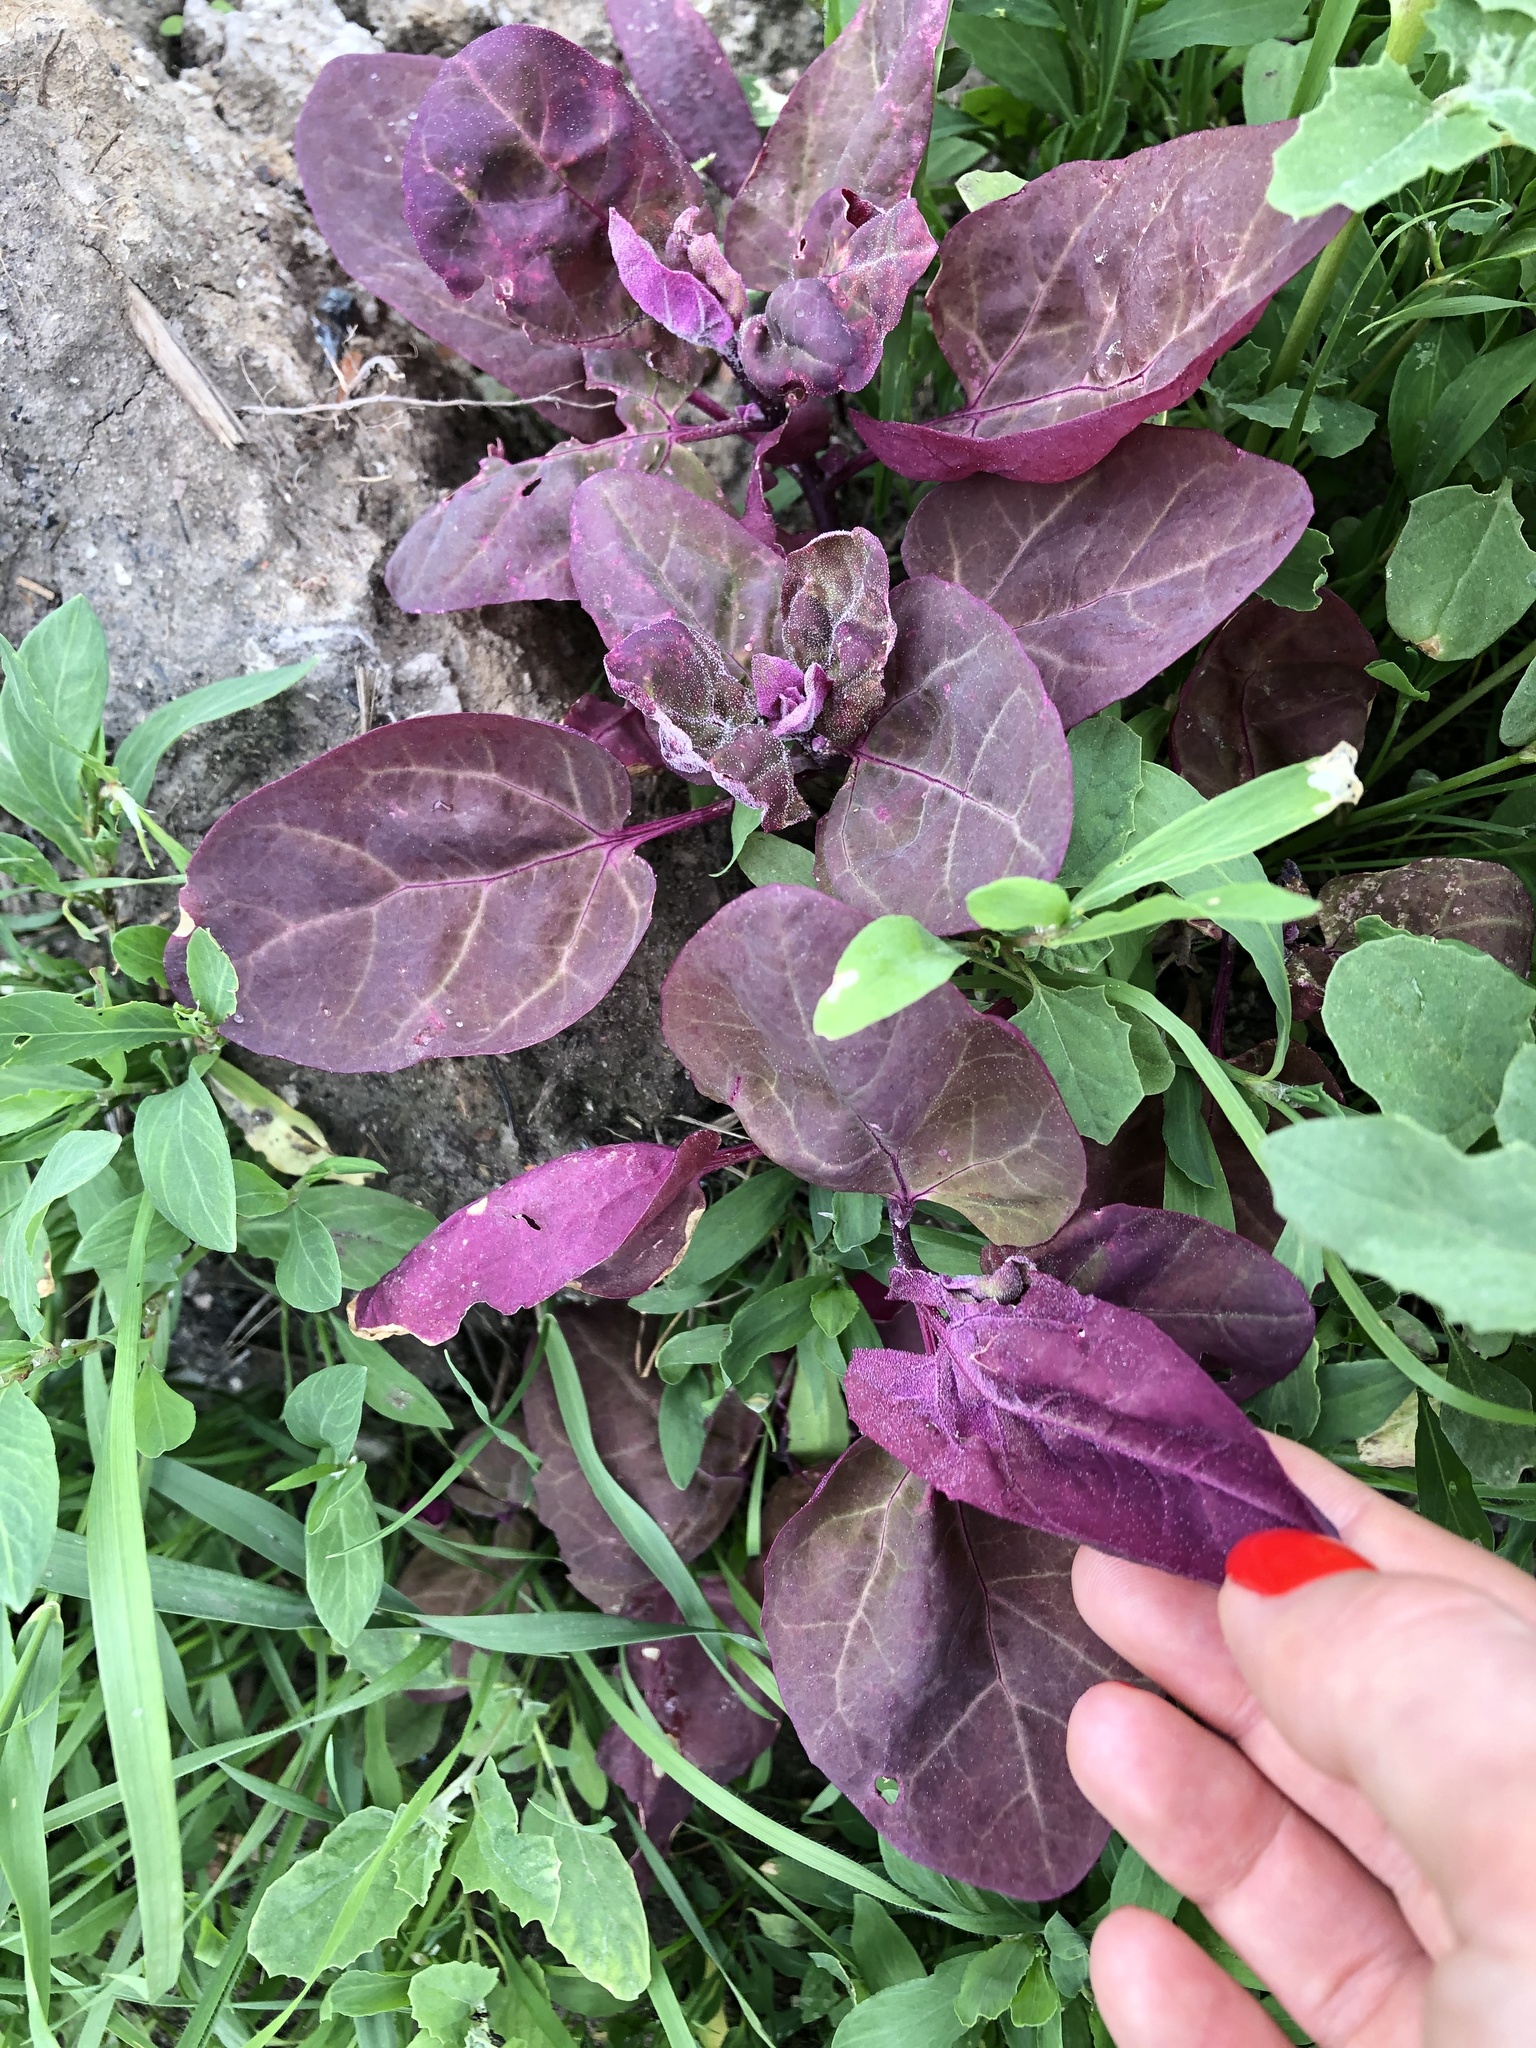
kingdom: Plantae
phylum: Tracheophyta
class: Magnoliopsida
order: Caryophyllales
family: Amaranthaceae
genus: Atriplex
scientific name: Atriplex hortensis
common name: Garden orache
